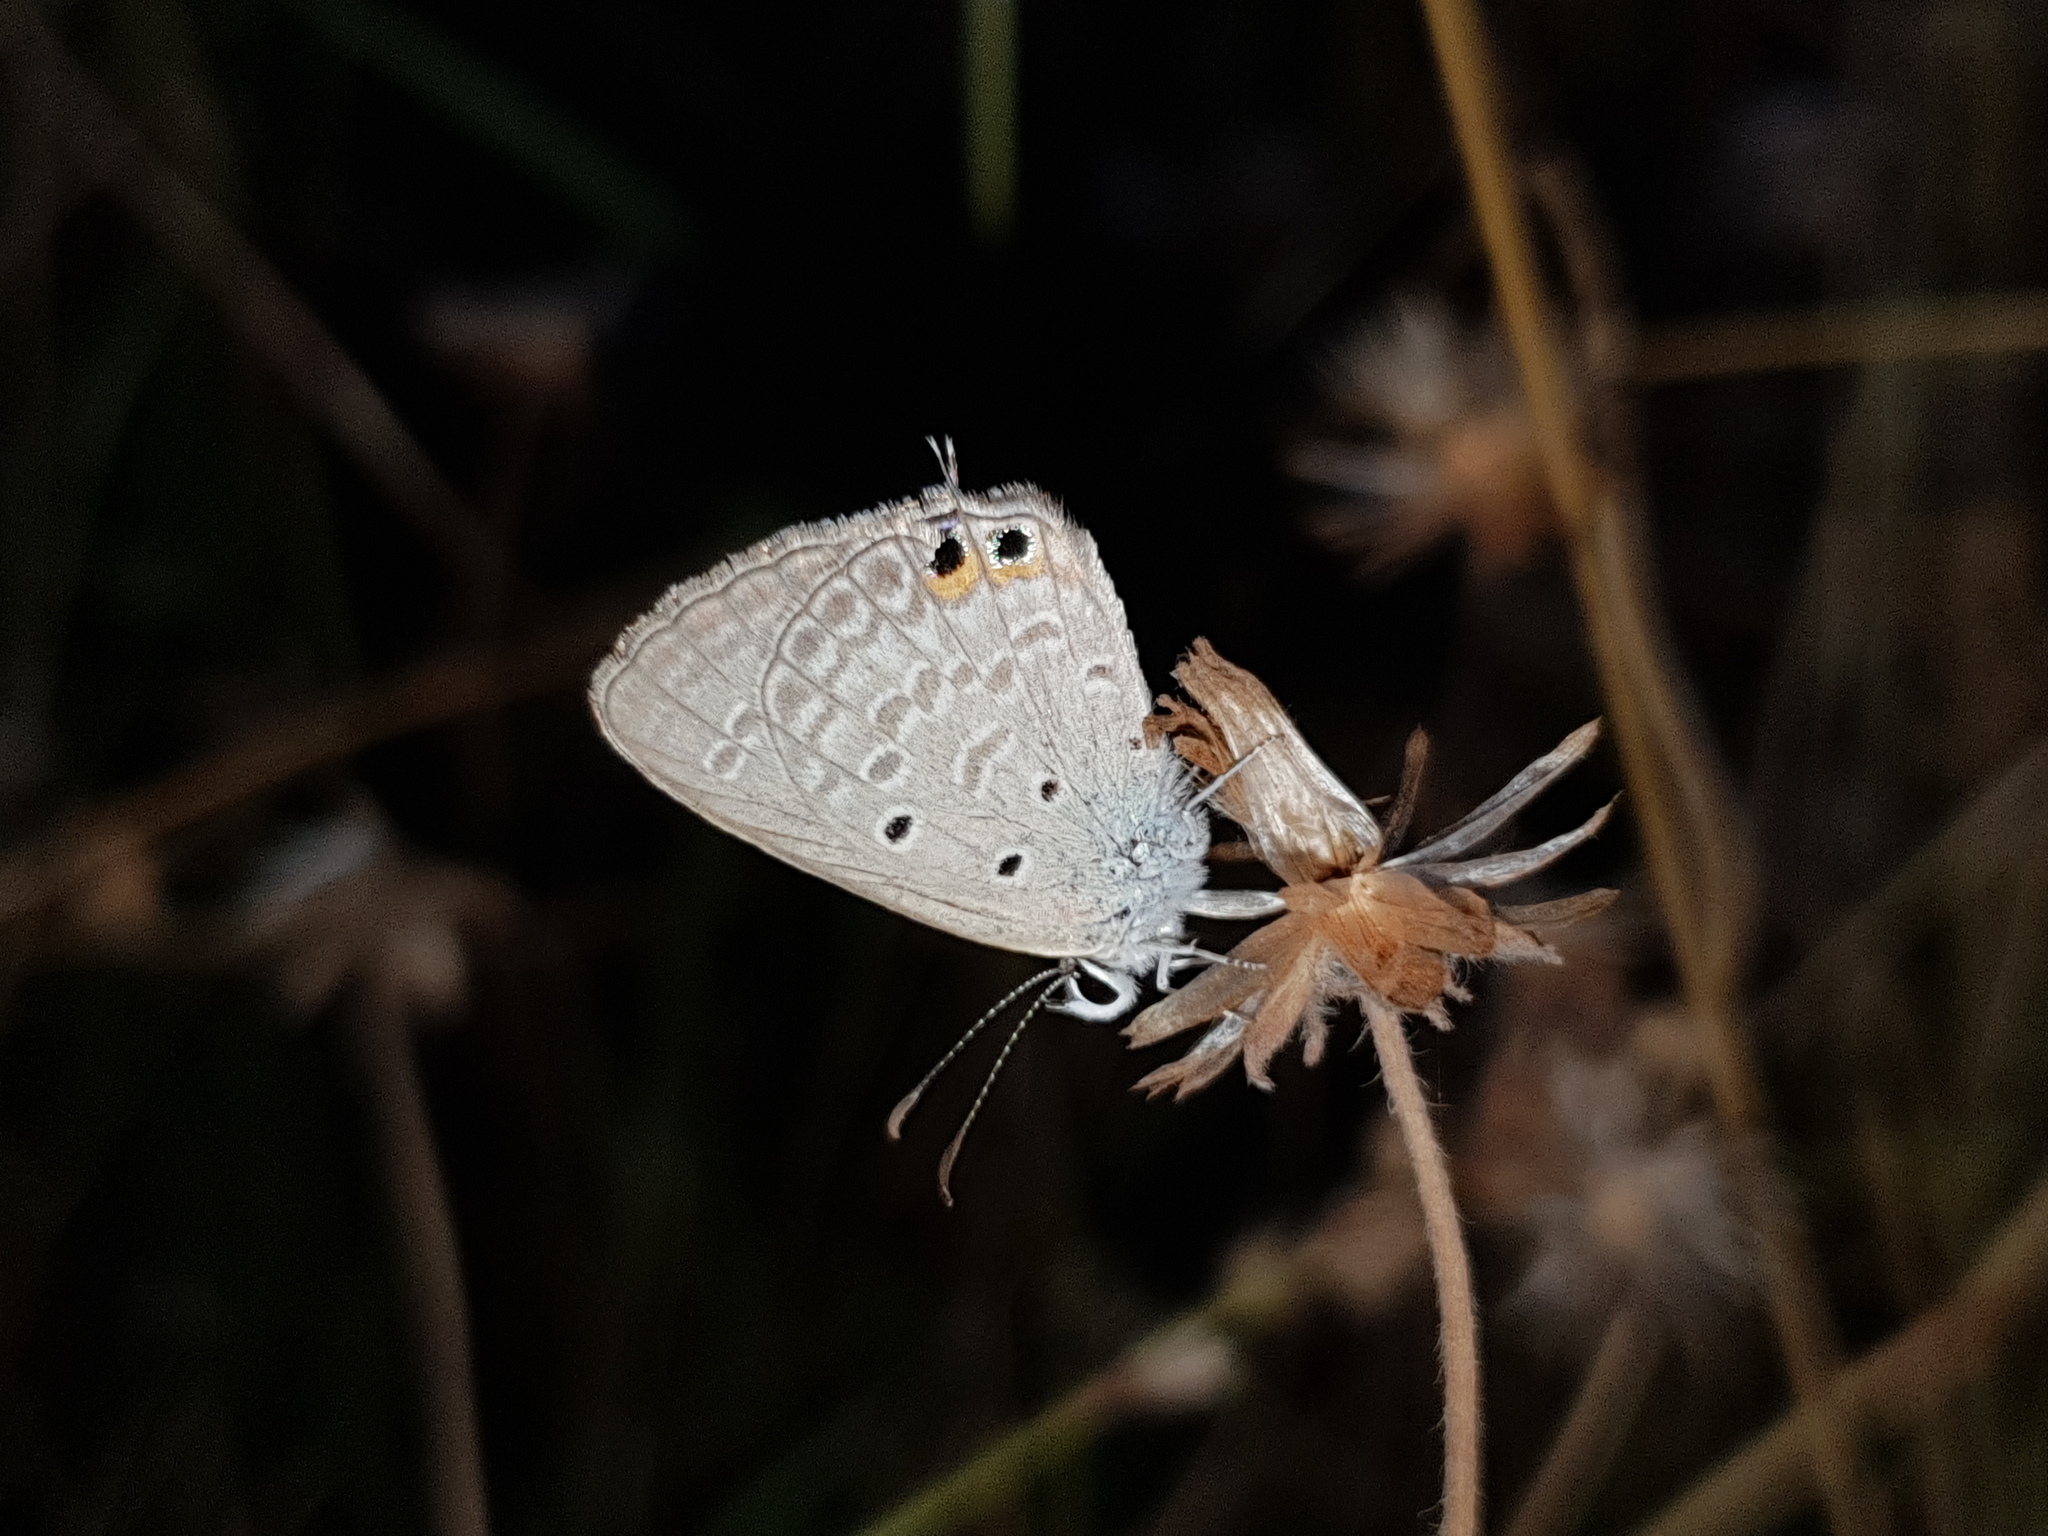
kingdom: Animalia
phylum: Arthropoda
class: Insecta
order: Lepidoptera
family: Lycaenidae
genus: Euchrysops
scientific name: Euchrysops cnejus
